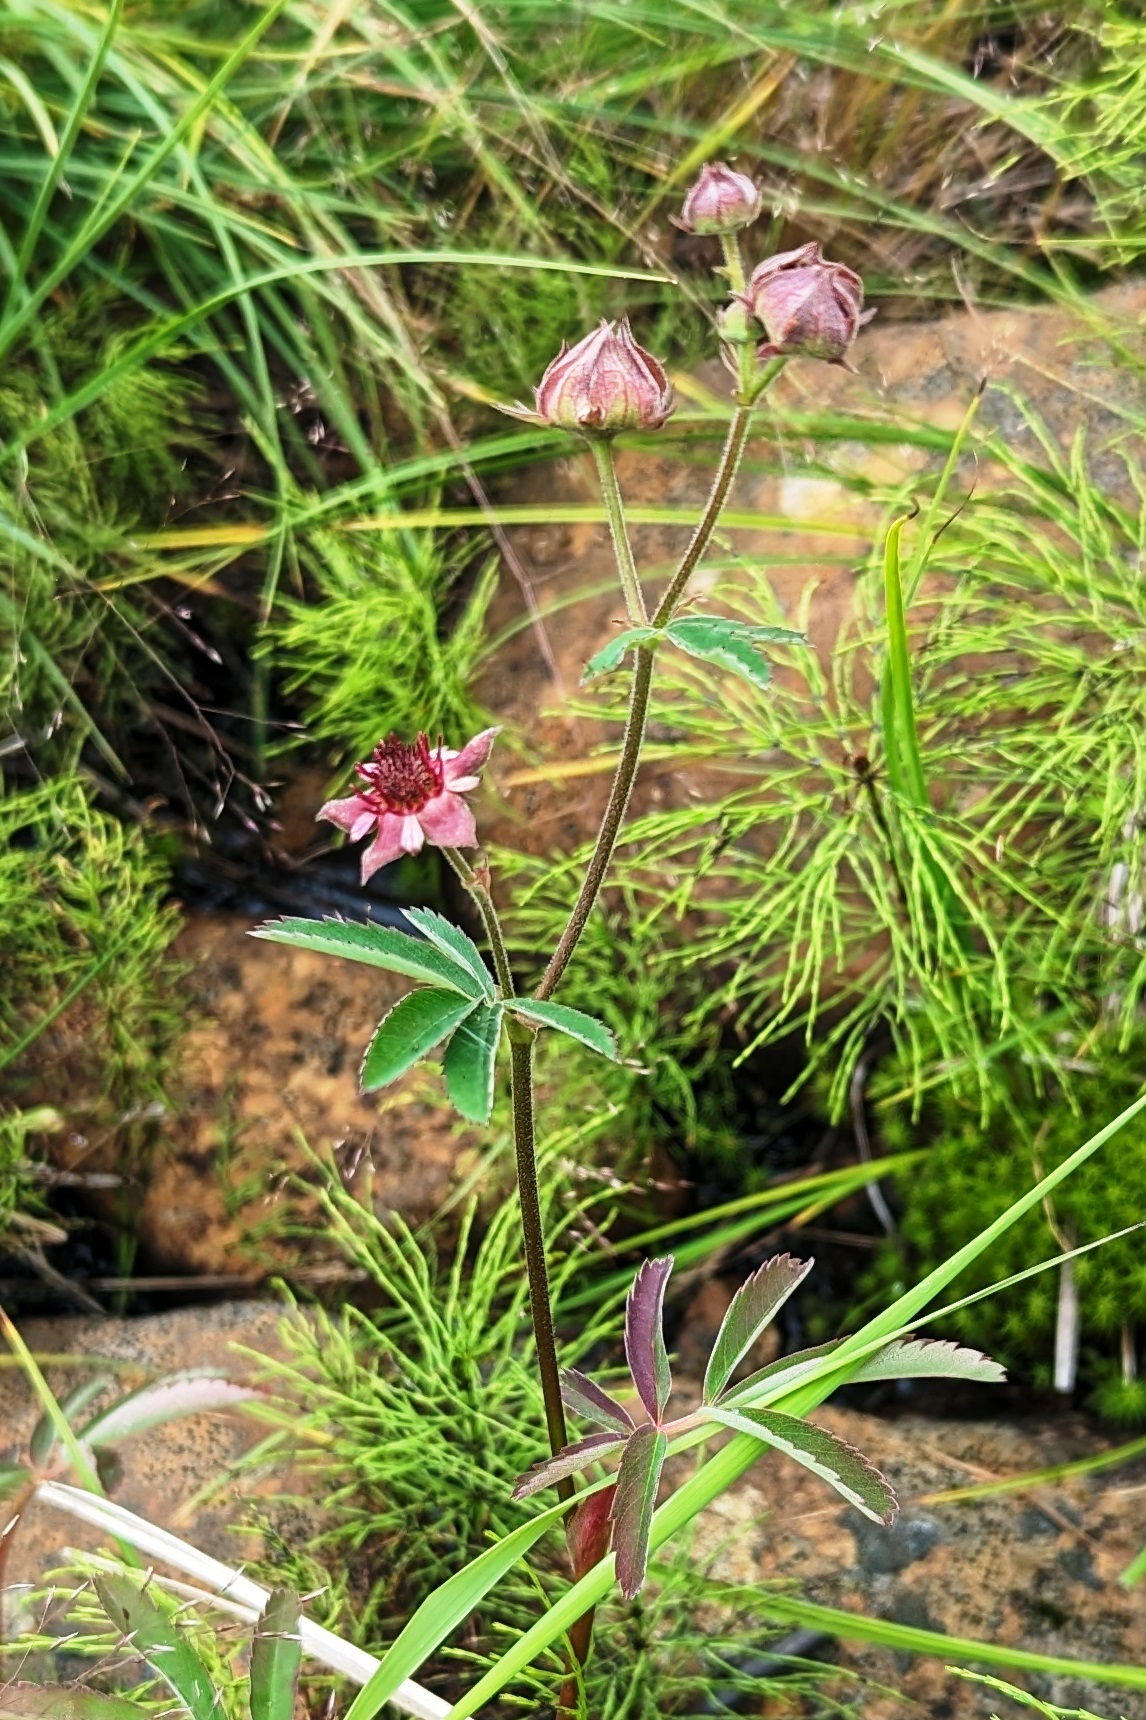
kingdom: Plantae
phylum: Tracheophyta
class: Magnoliopsida
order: Rosales
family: Rosaceae
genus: Comarum
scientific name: Comarum palustre
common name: Marsh cinquefoil
